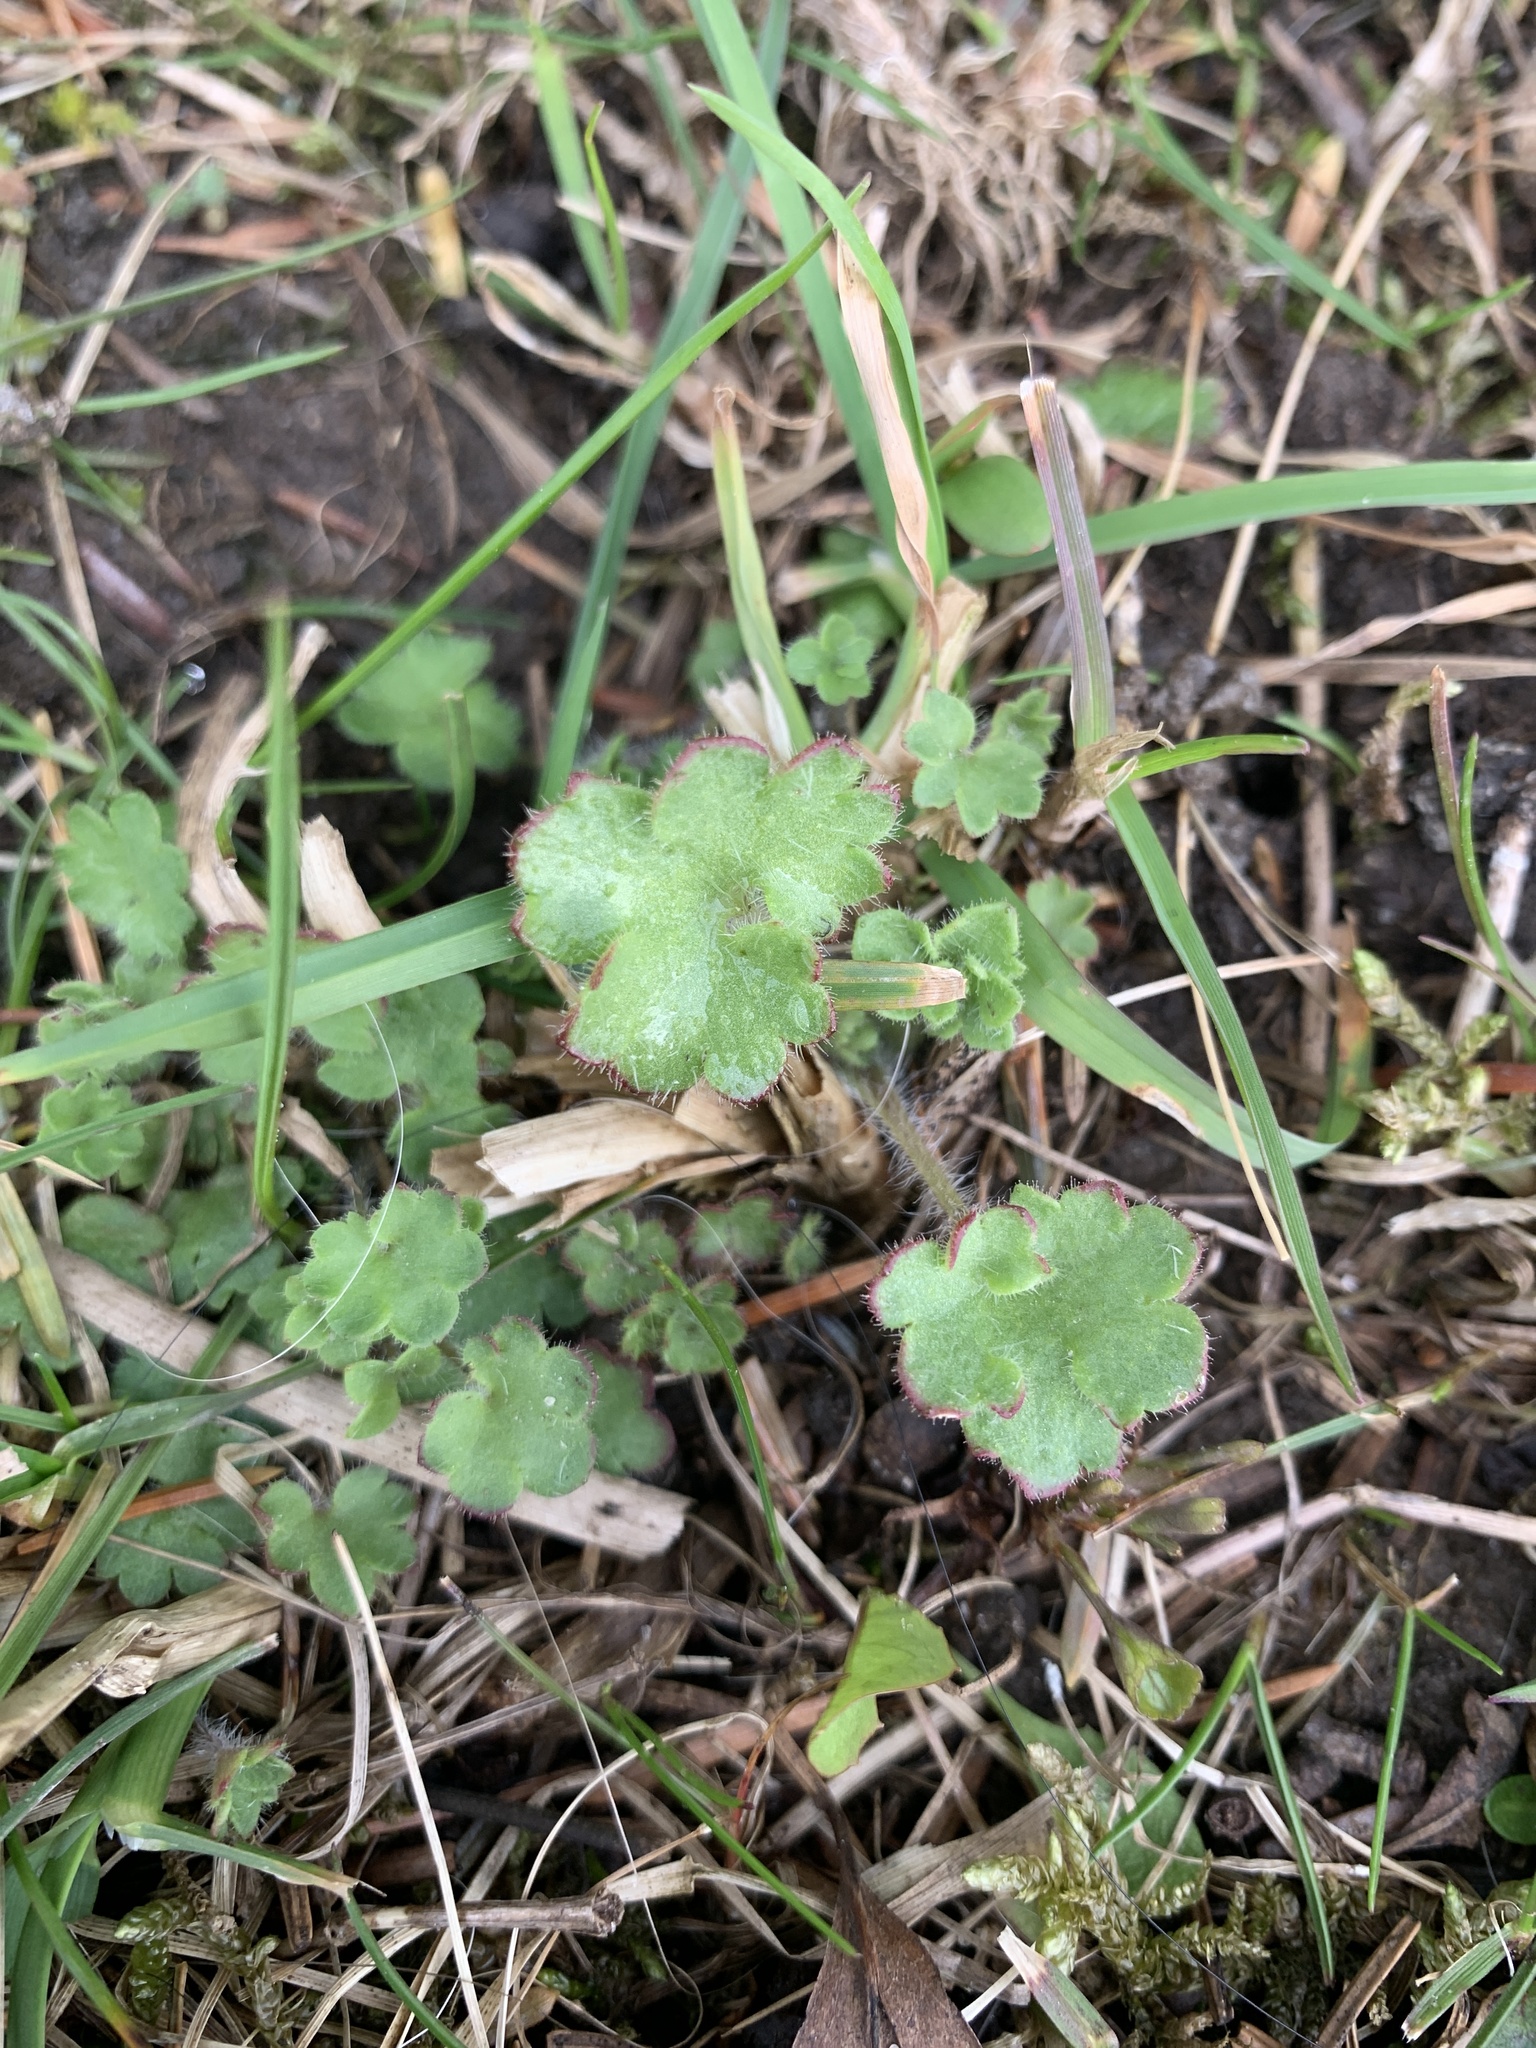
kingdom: Plantae
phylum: Tracheophyta
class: Magnoliopsida
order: Saxifragales
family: Saxifragaceae
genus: Saxifraga
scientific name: Saxifraga granulata
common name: Meadow saxifrage
